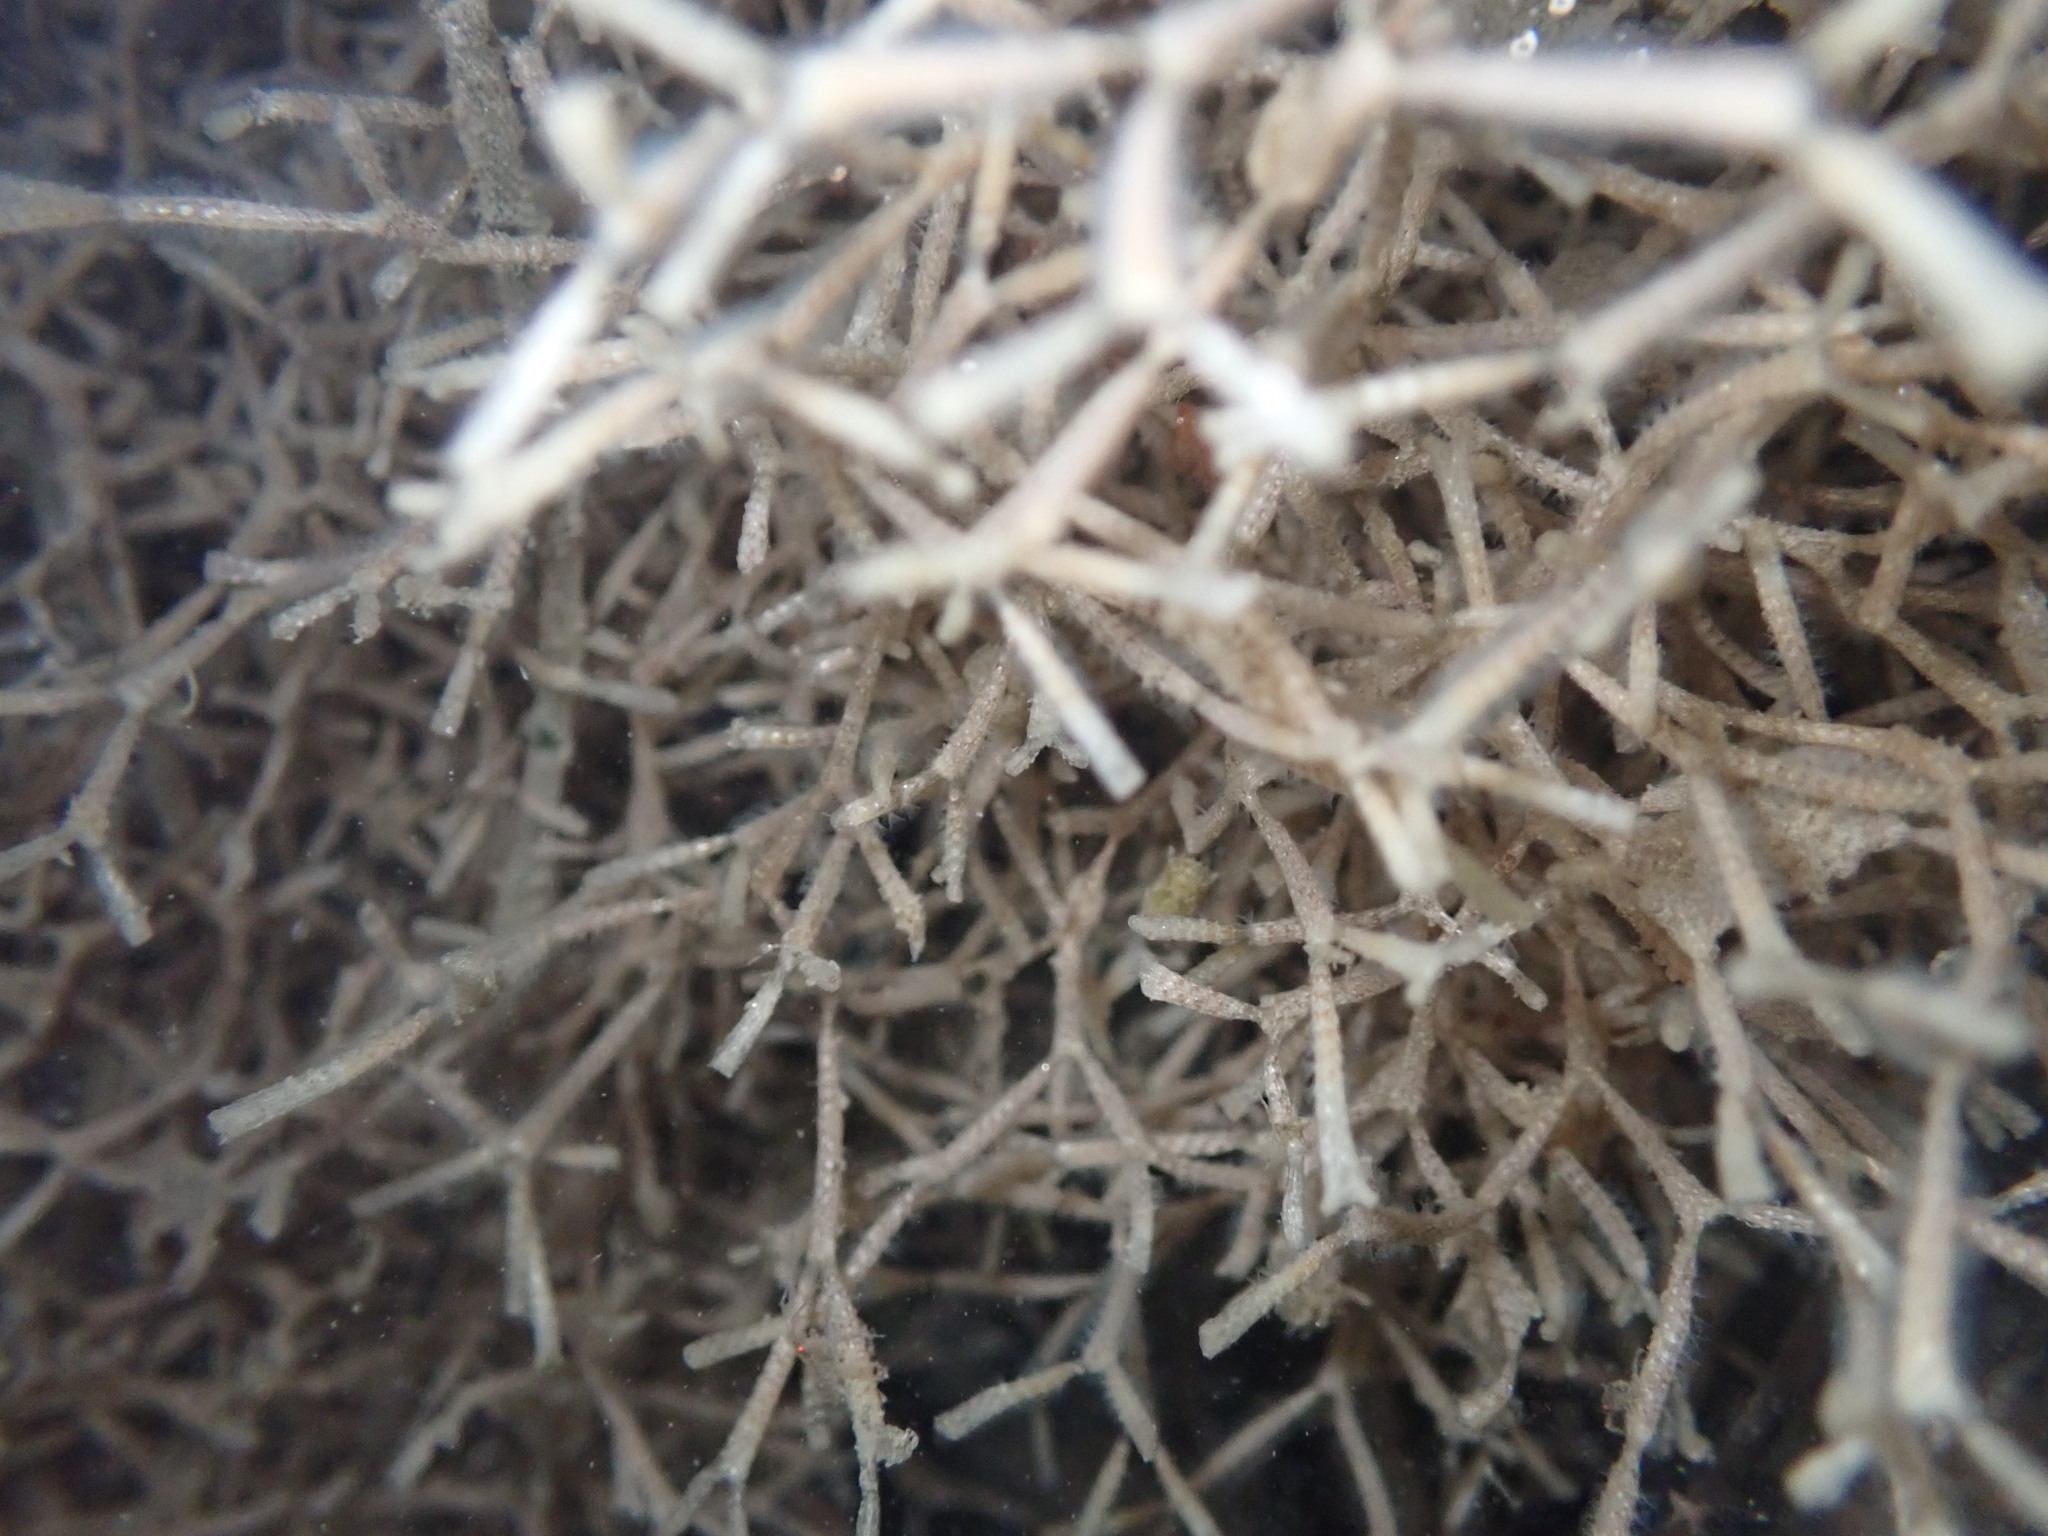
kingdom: Animalia
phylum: Bryozoa
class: Gymnolaemata
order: Cheilostomatida
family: Thalamoporellidae
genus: Thalamoporella
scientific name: Thalamoporella californica
